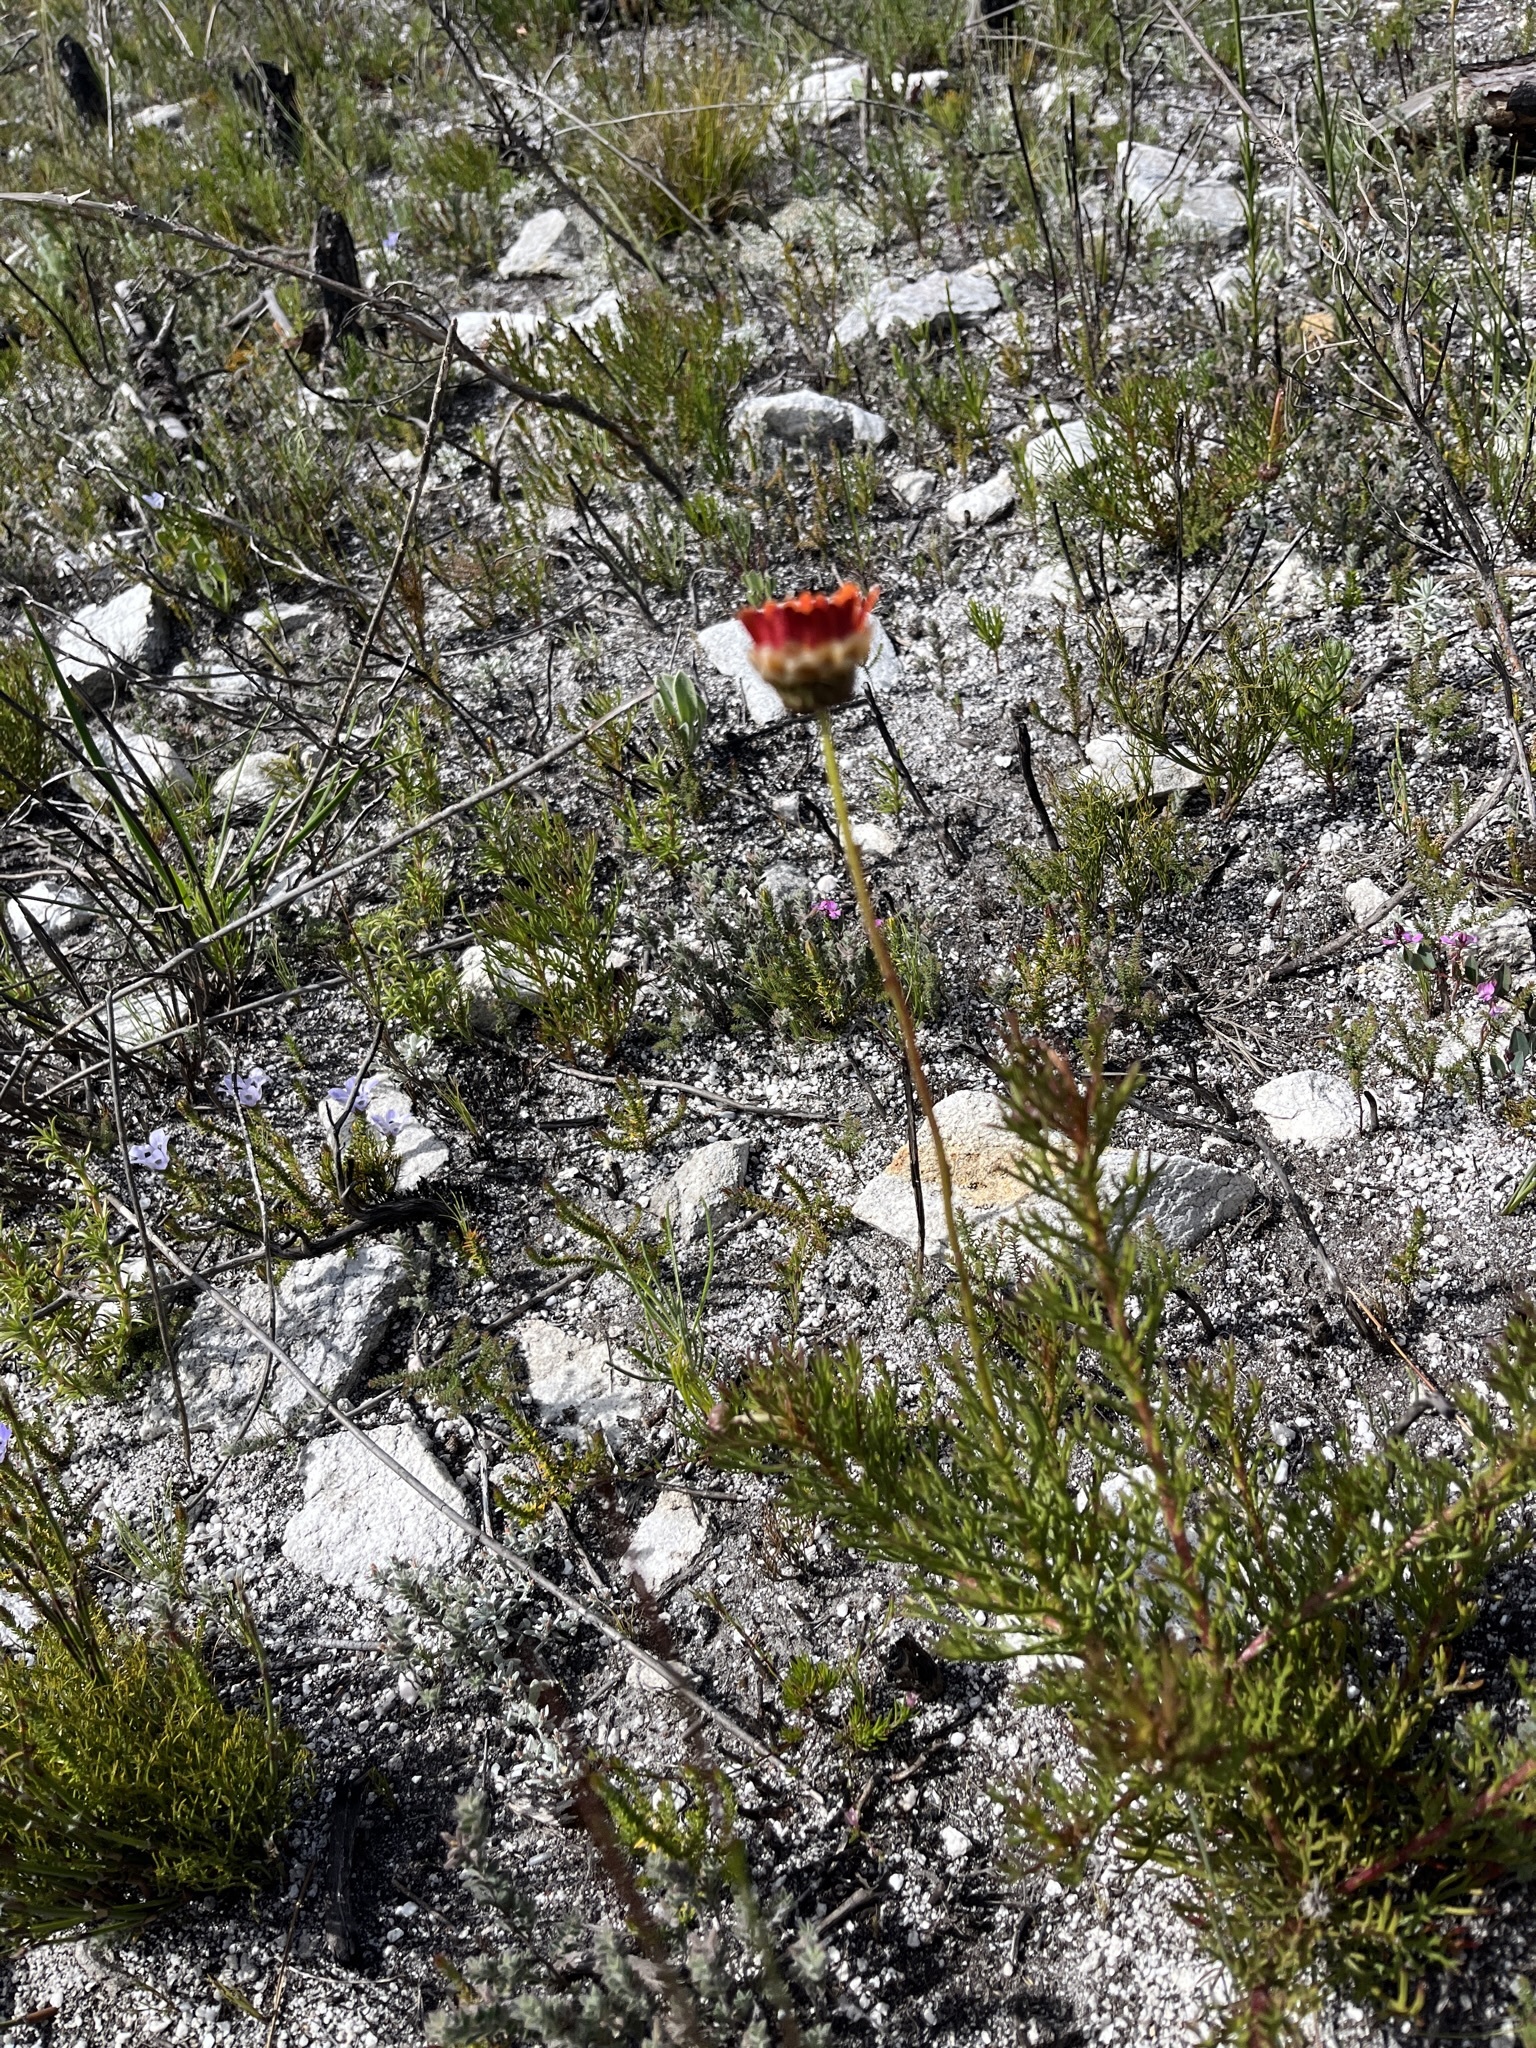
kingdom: Plantae
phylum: Tracheophyta
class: Magnoliopsida
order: Asterales
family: Asteraceae
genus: Ursinia
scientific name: Ursinia oreogena
